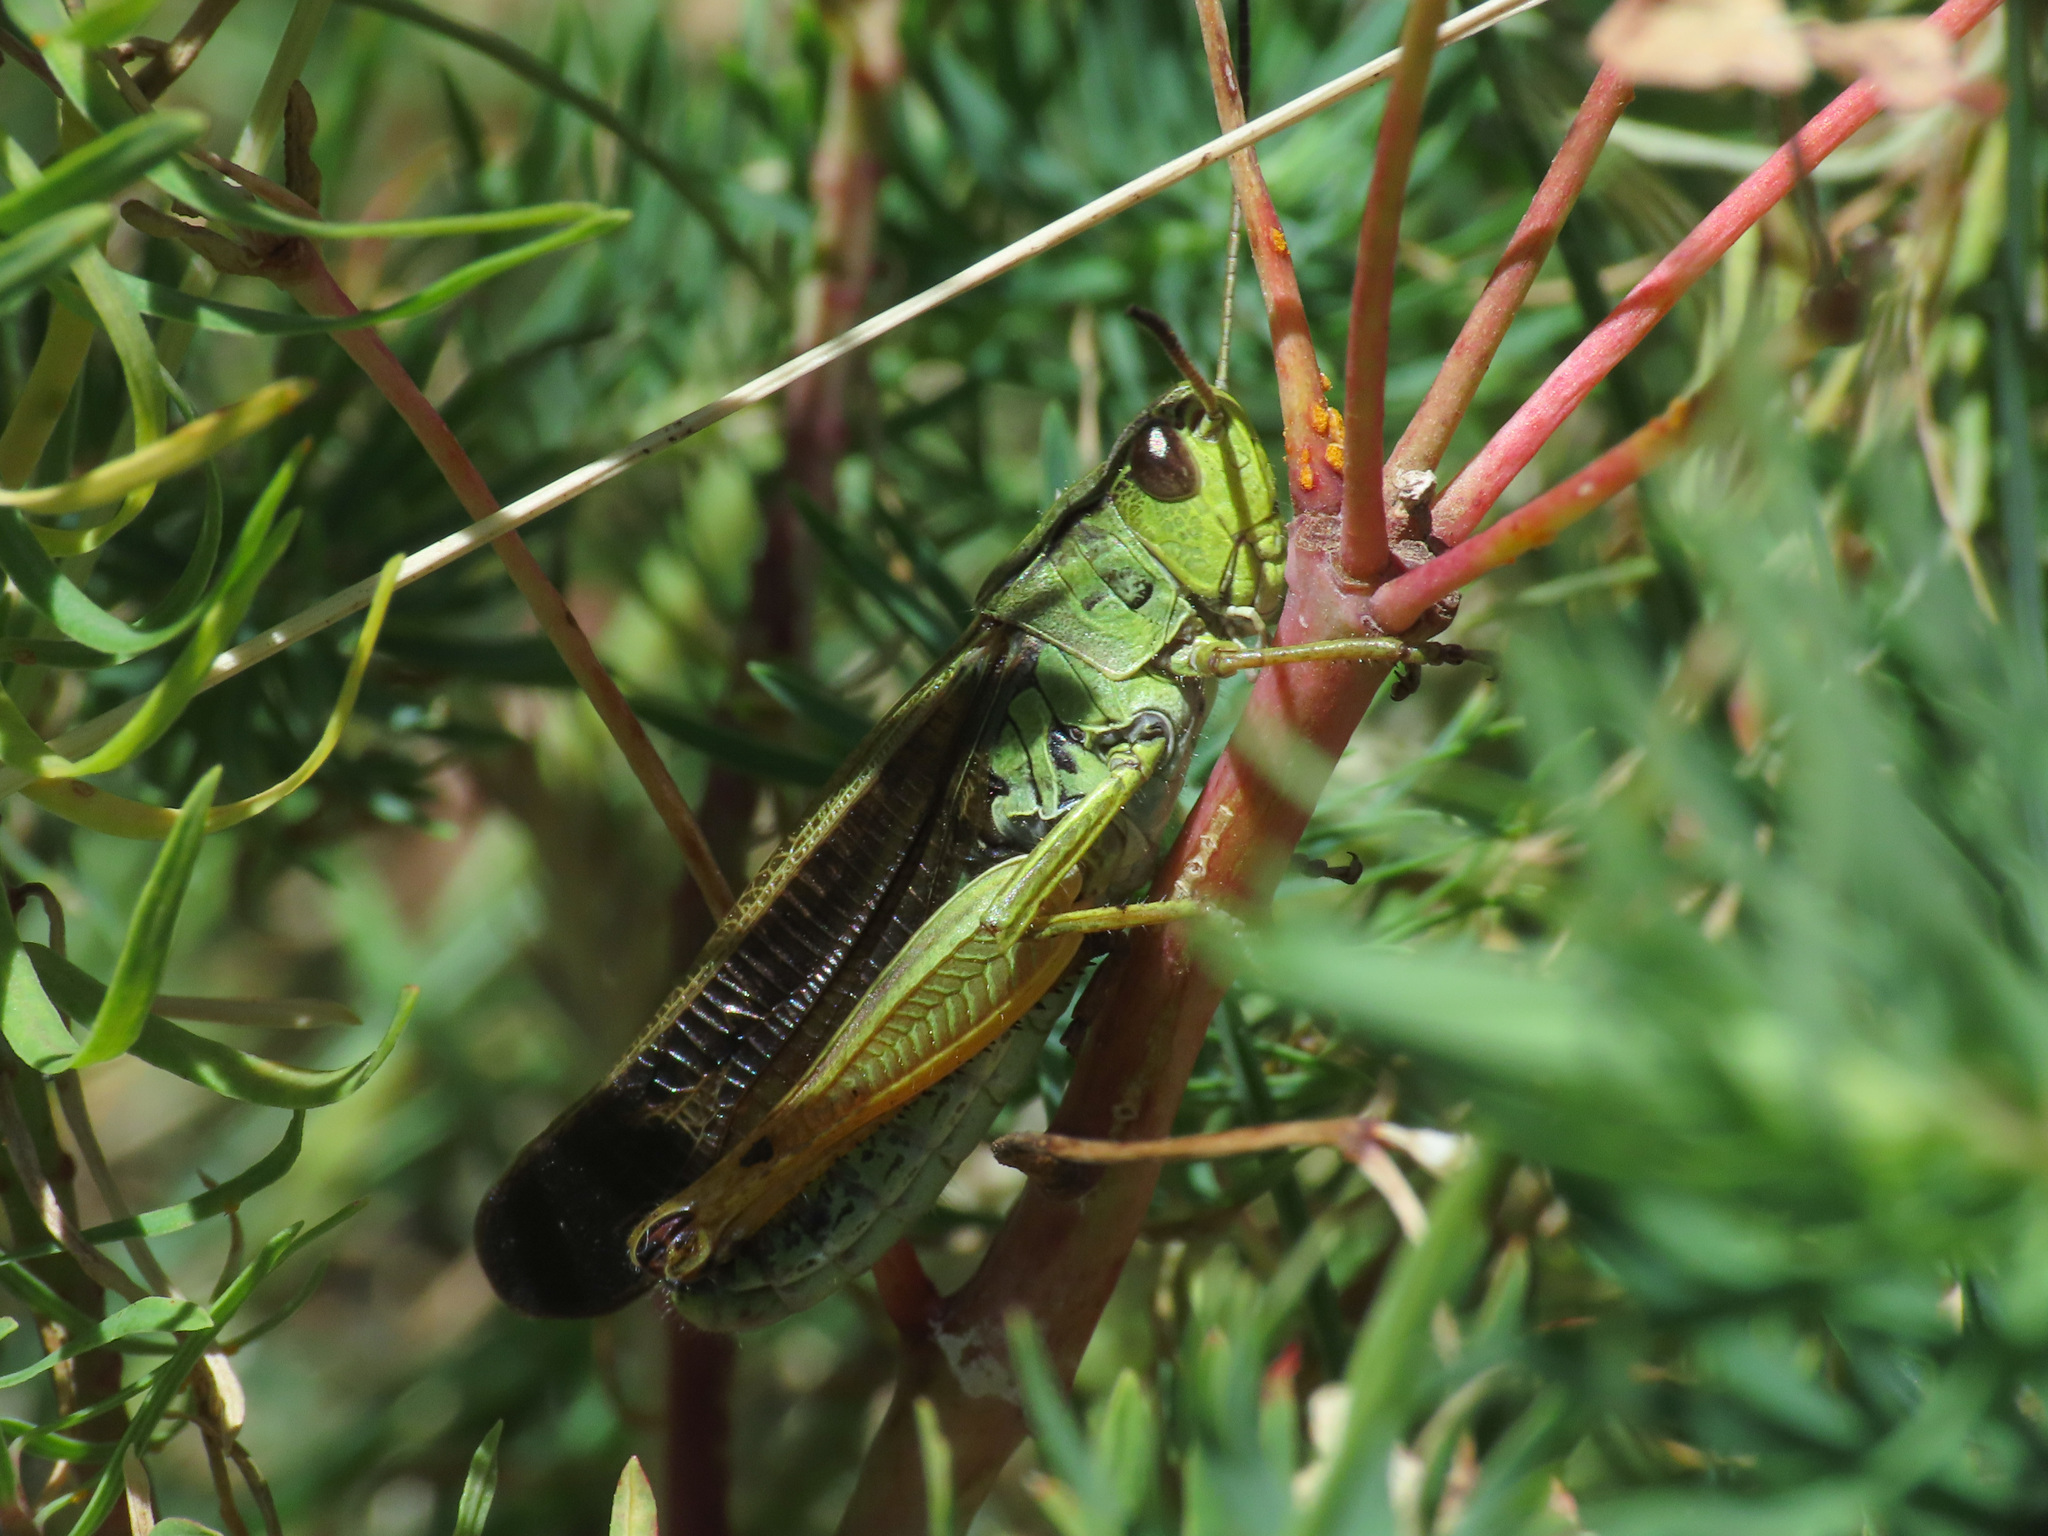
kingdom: Animalia
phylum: Arthropoda
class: Insecta
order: Orthoptera
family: Acrididae
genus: Stauroderus
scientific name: Stauroderus scalaris
